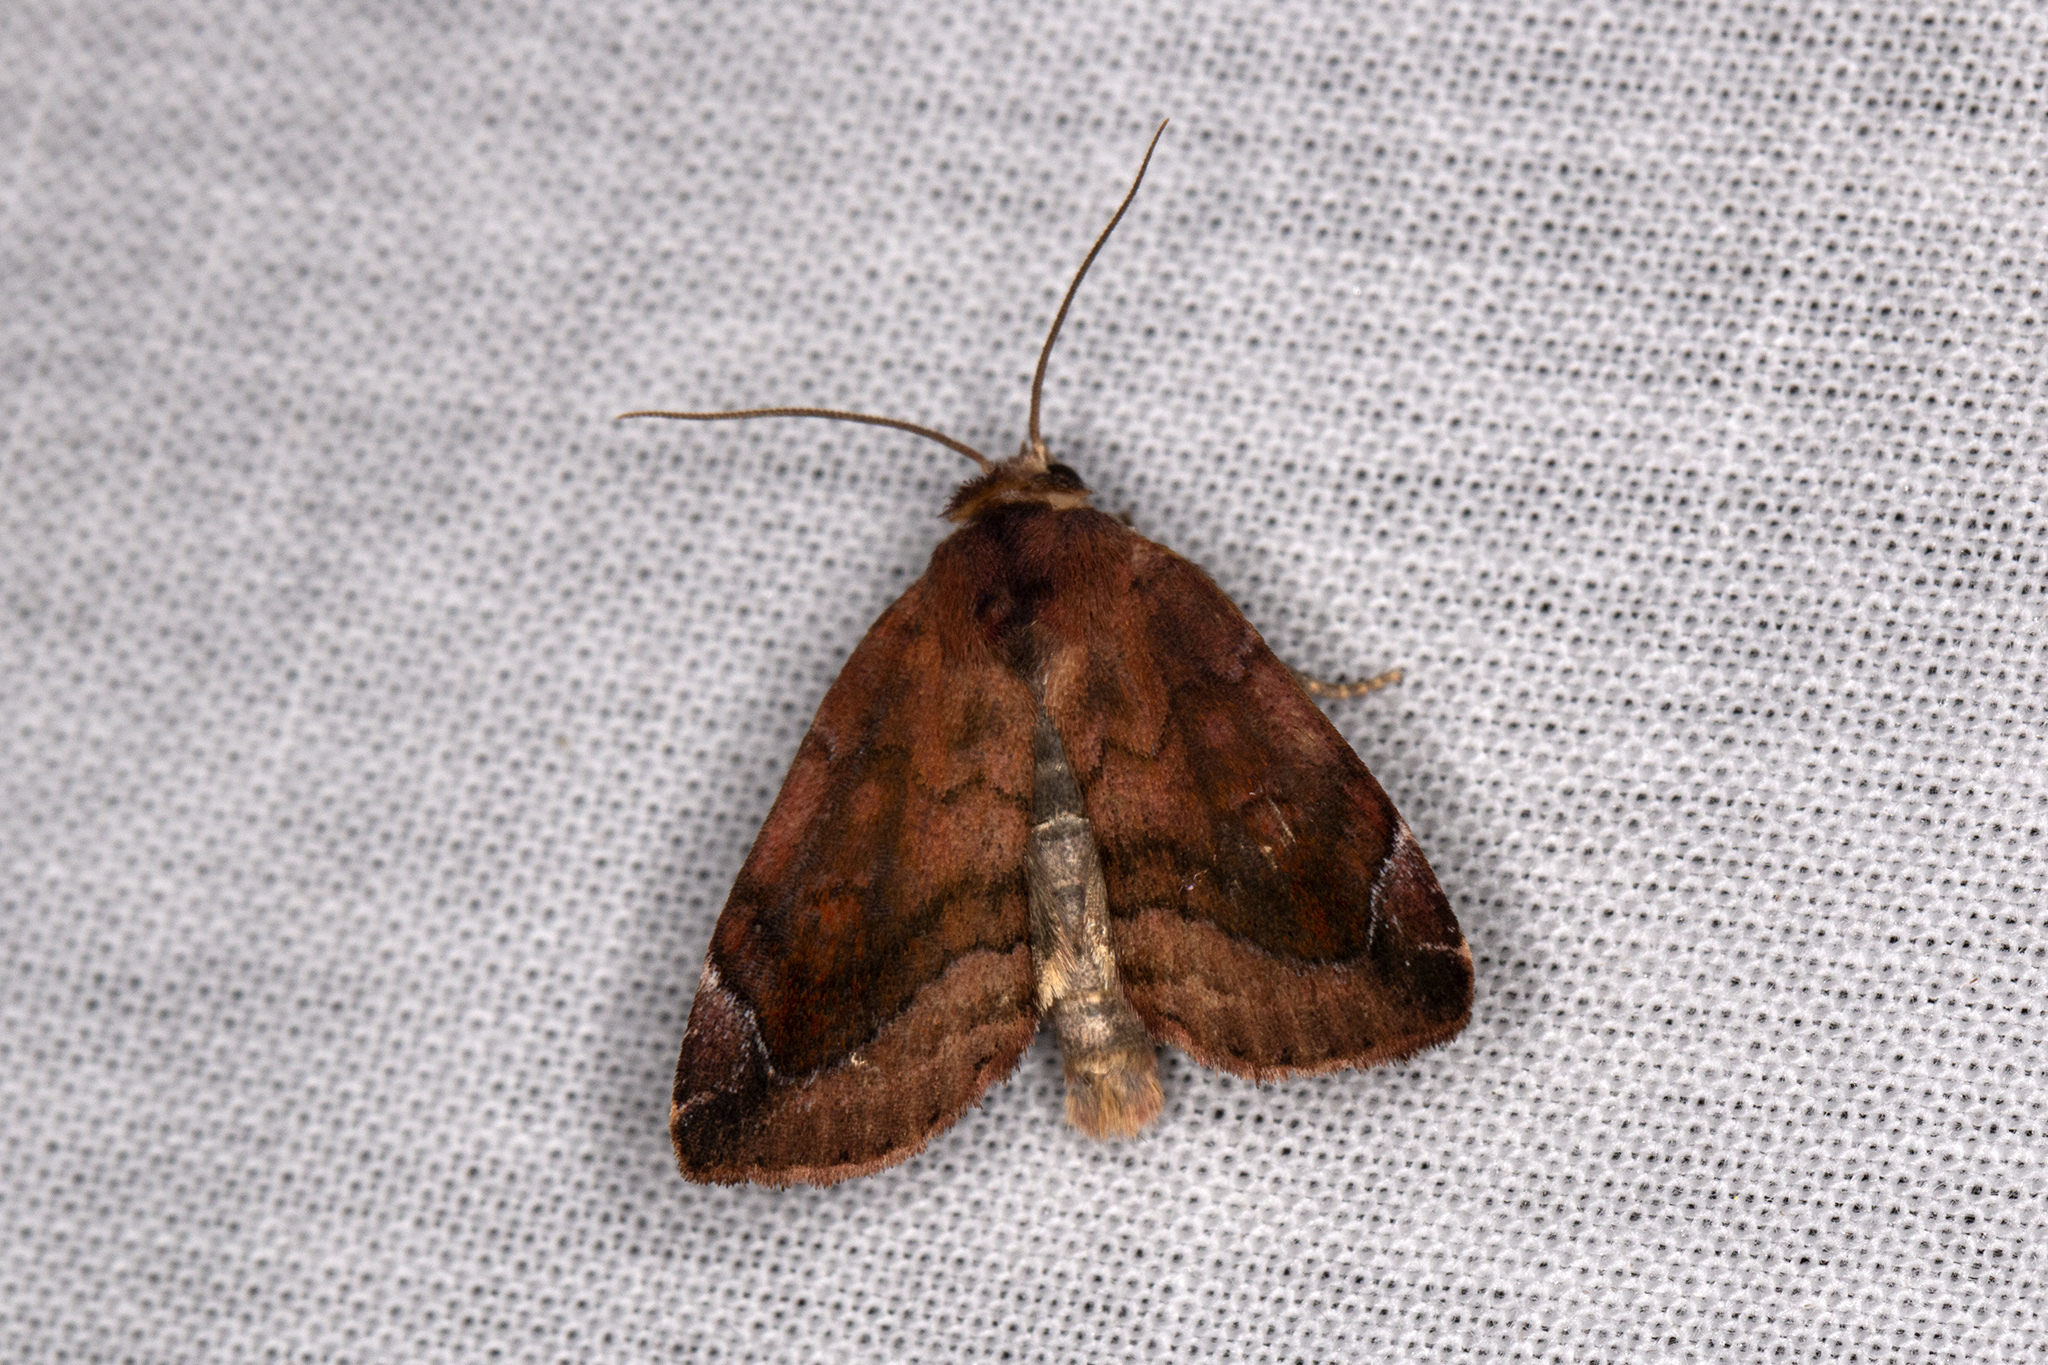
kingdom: Animalia
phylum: Arthropoda
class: Insecta
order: Lepidoptera
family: Noctuidae
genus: Cosmia
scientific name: Cosmia pyralina
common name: Lunar-spotted pinion
